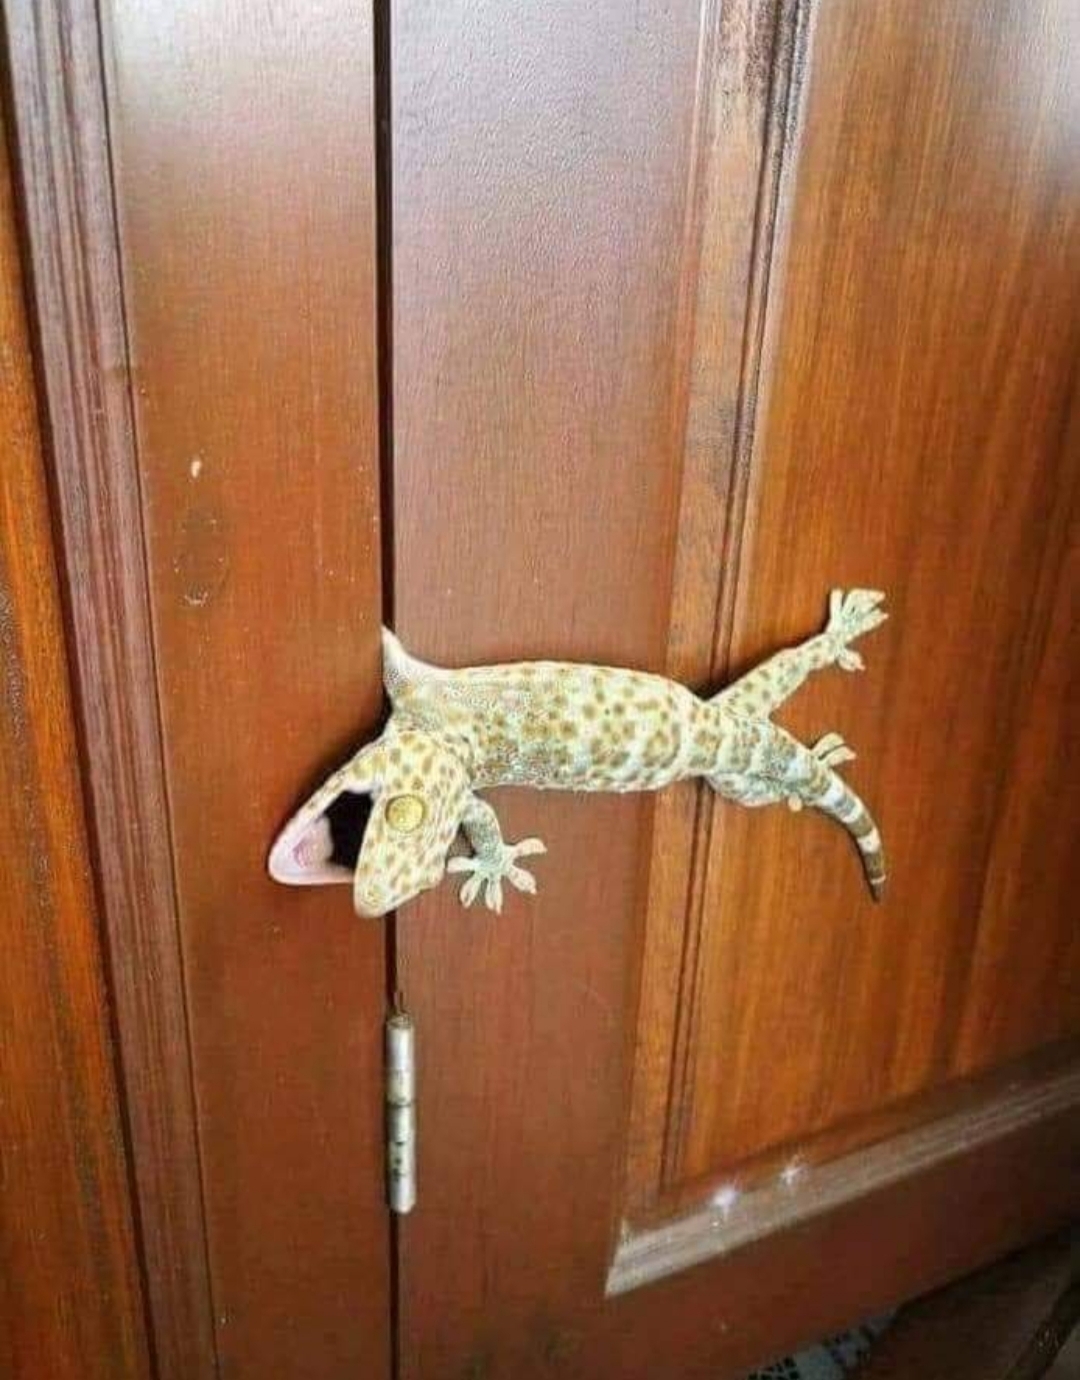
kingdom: Animalia
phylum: Chordata
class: Squamata
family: Gekkonidae
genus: Gekko
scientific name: Gekko gecko
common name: Tokay gecko
